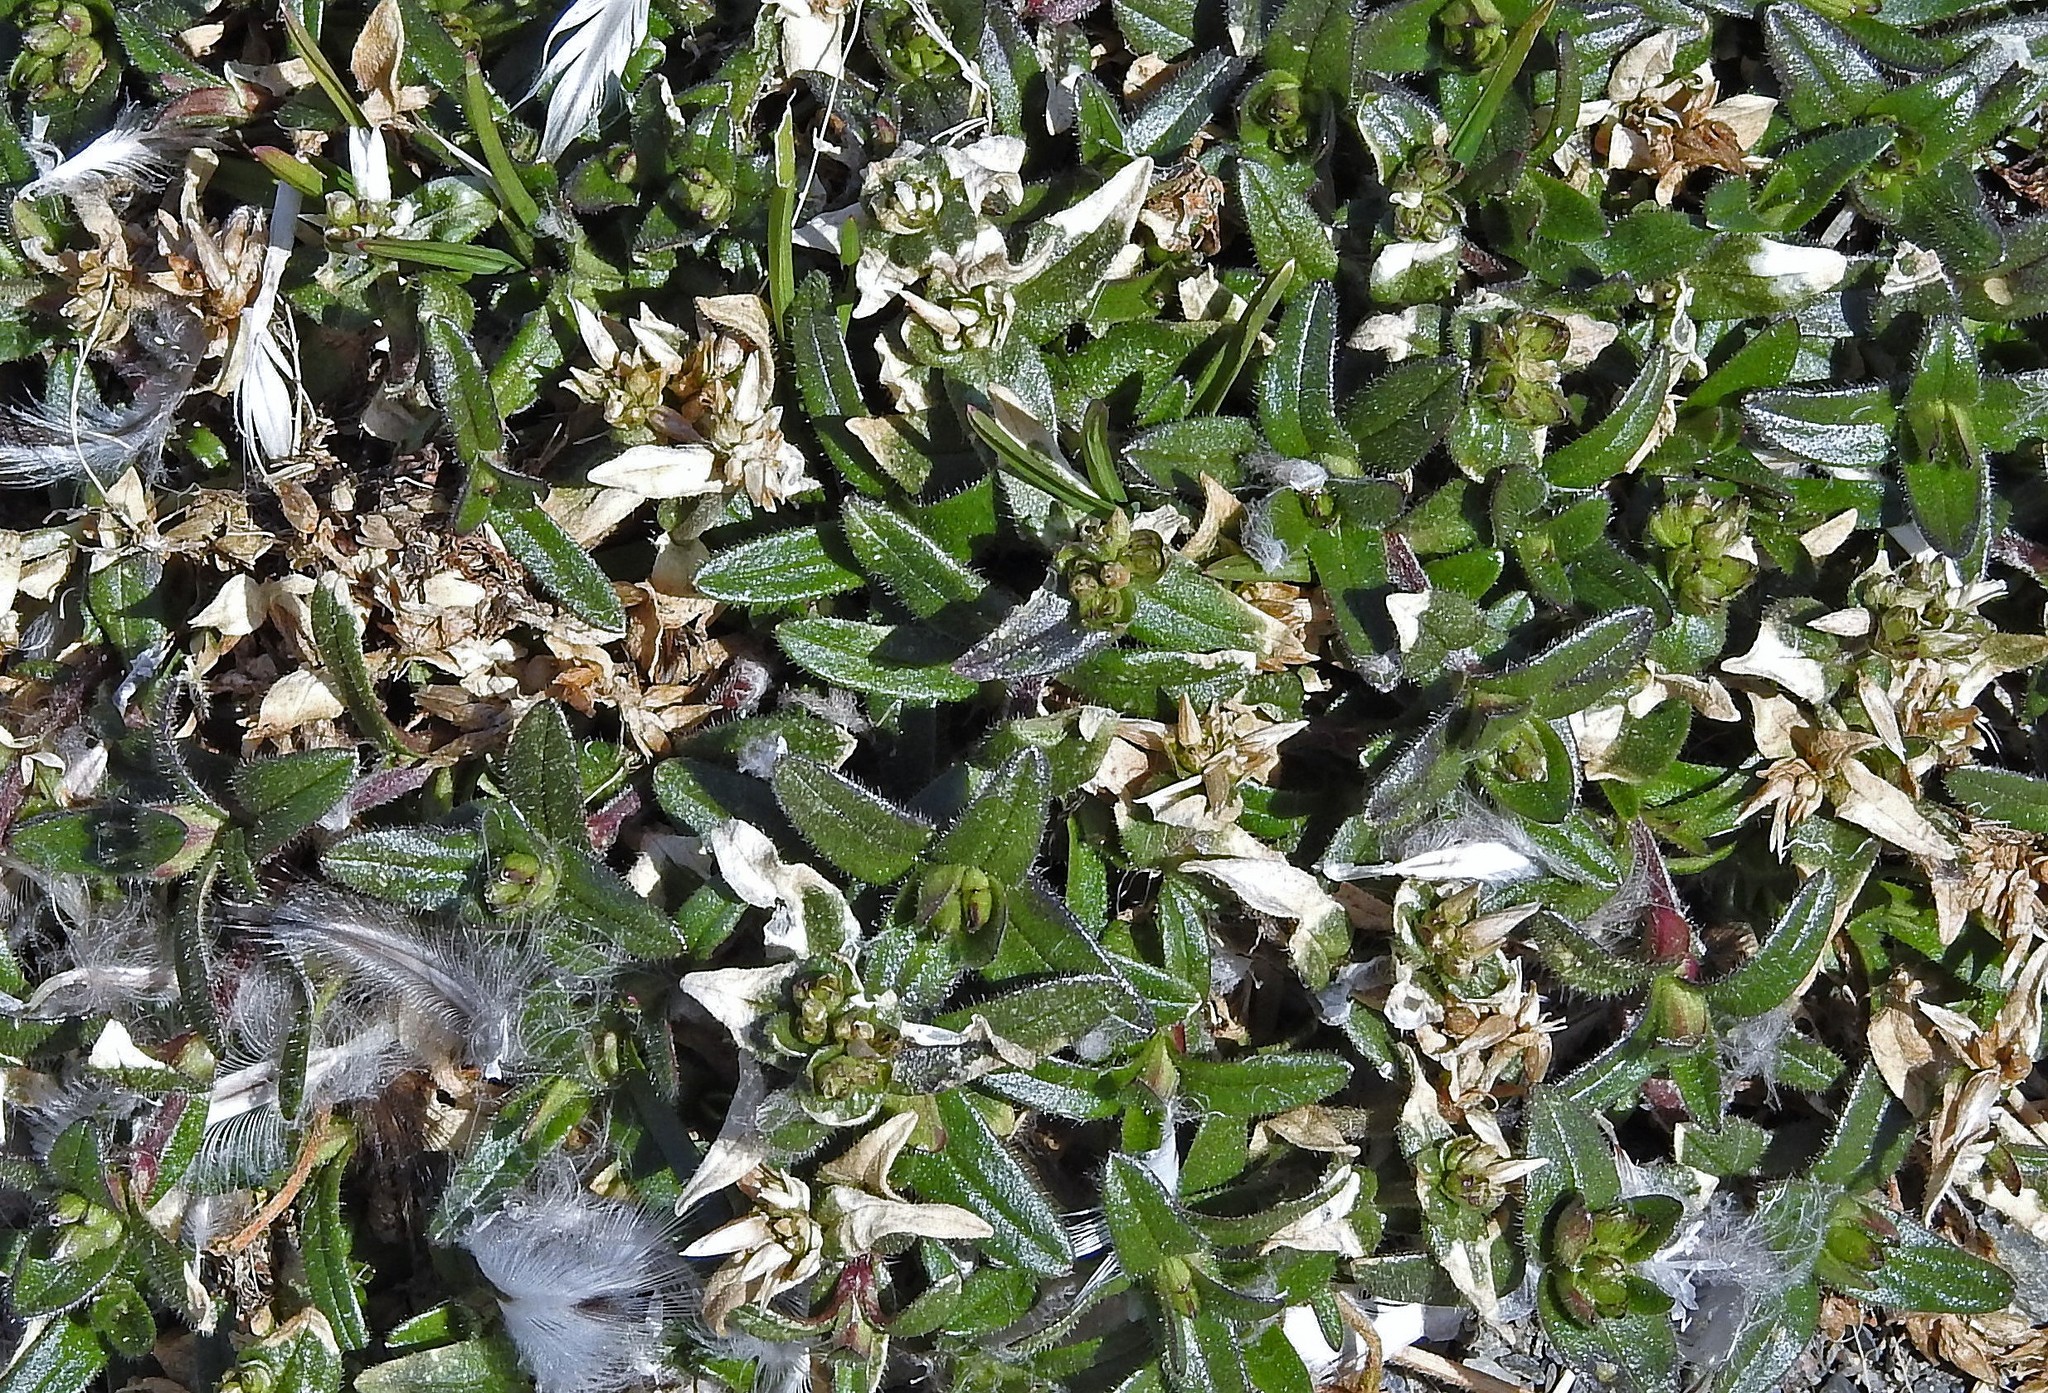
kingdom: Plantae
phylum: Tracheophyta
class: Magnoliopsida
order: Caryophyllales
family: Caryophyllaceae
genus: Cerastium
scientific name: Cerastium fontanum
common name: Common mouse-ear
